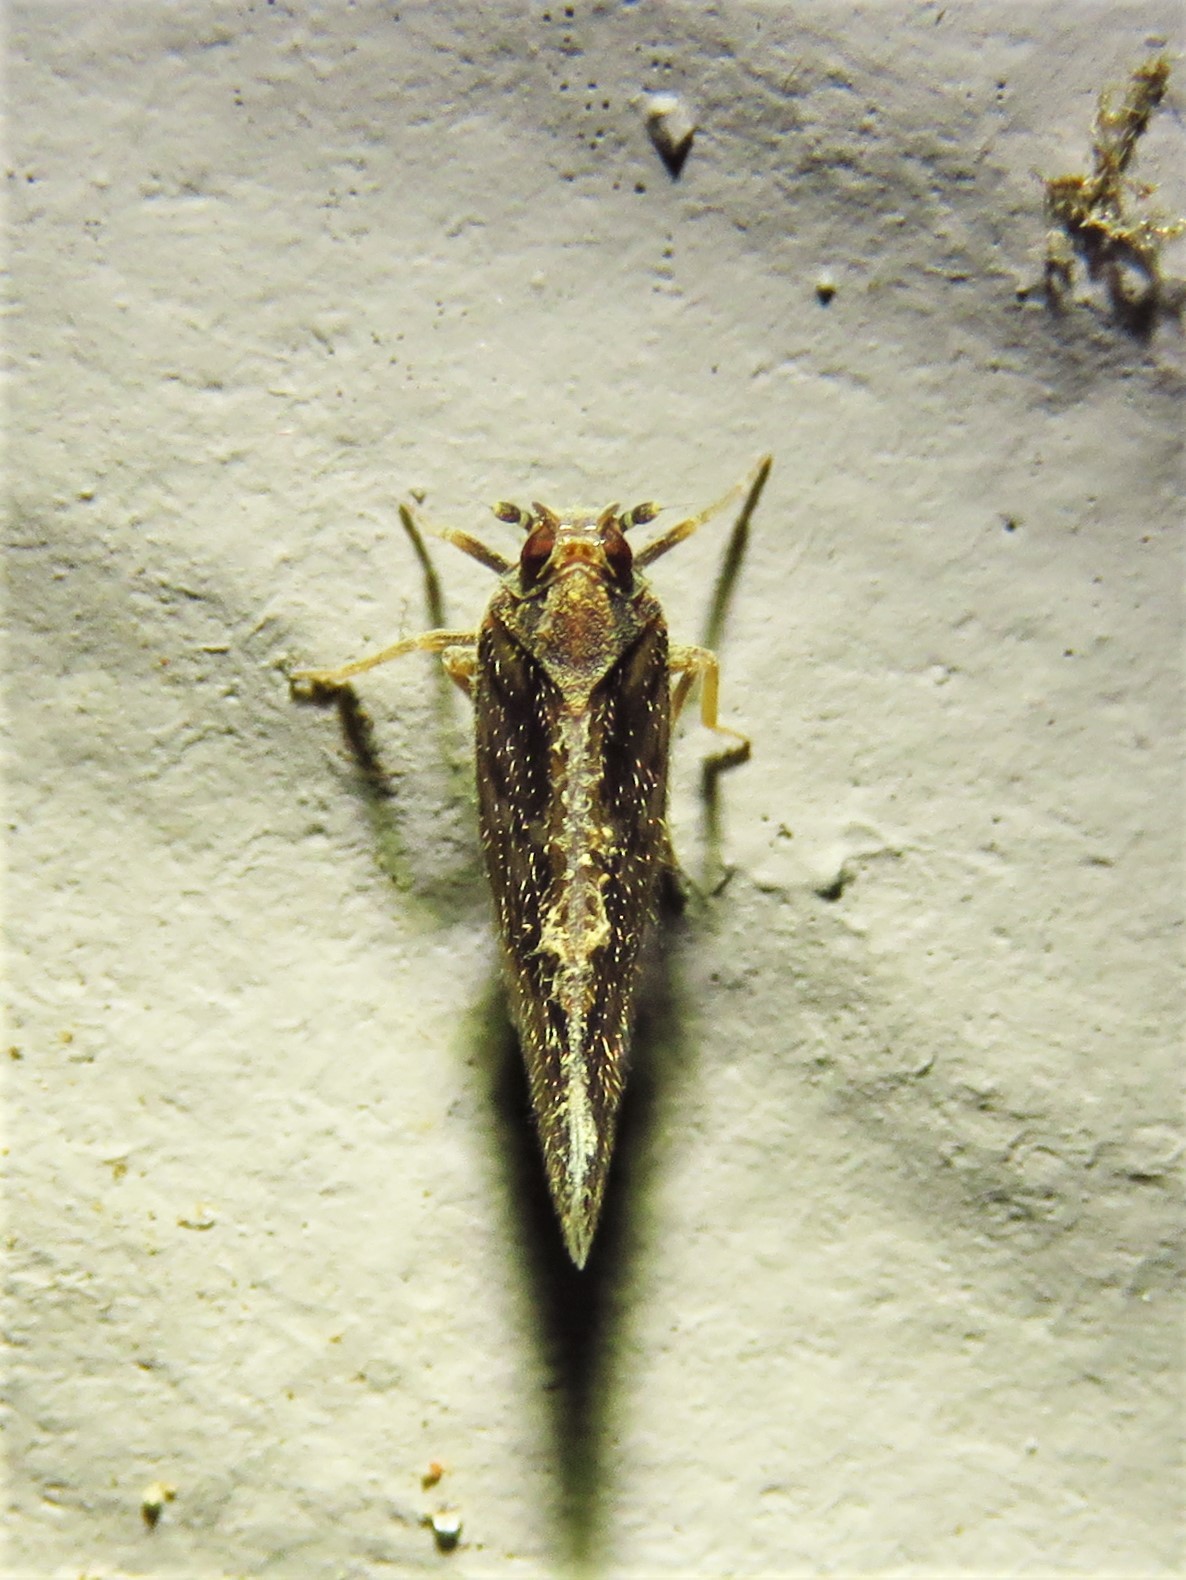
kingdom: Animalia
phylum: Arthropoda
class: Insecta
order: Hemiptera
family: Cixiidae
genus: Pintalia
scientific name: Pintalia vibex
